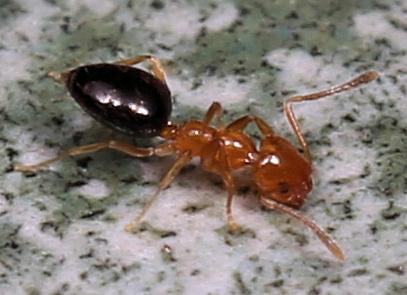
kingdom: Animalia
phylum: Arthropoda
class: Insecta
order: Hymenoptera
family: Formicidae
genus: Plagiolepis
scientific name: Plagiolepis vanderkelleni
